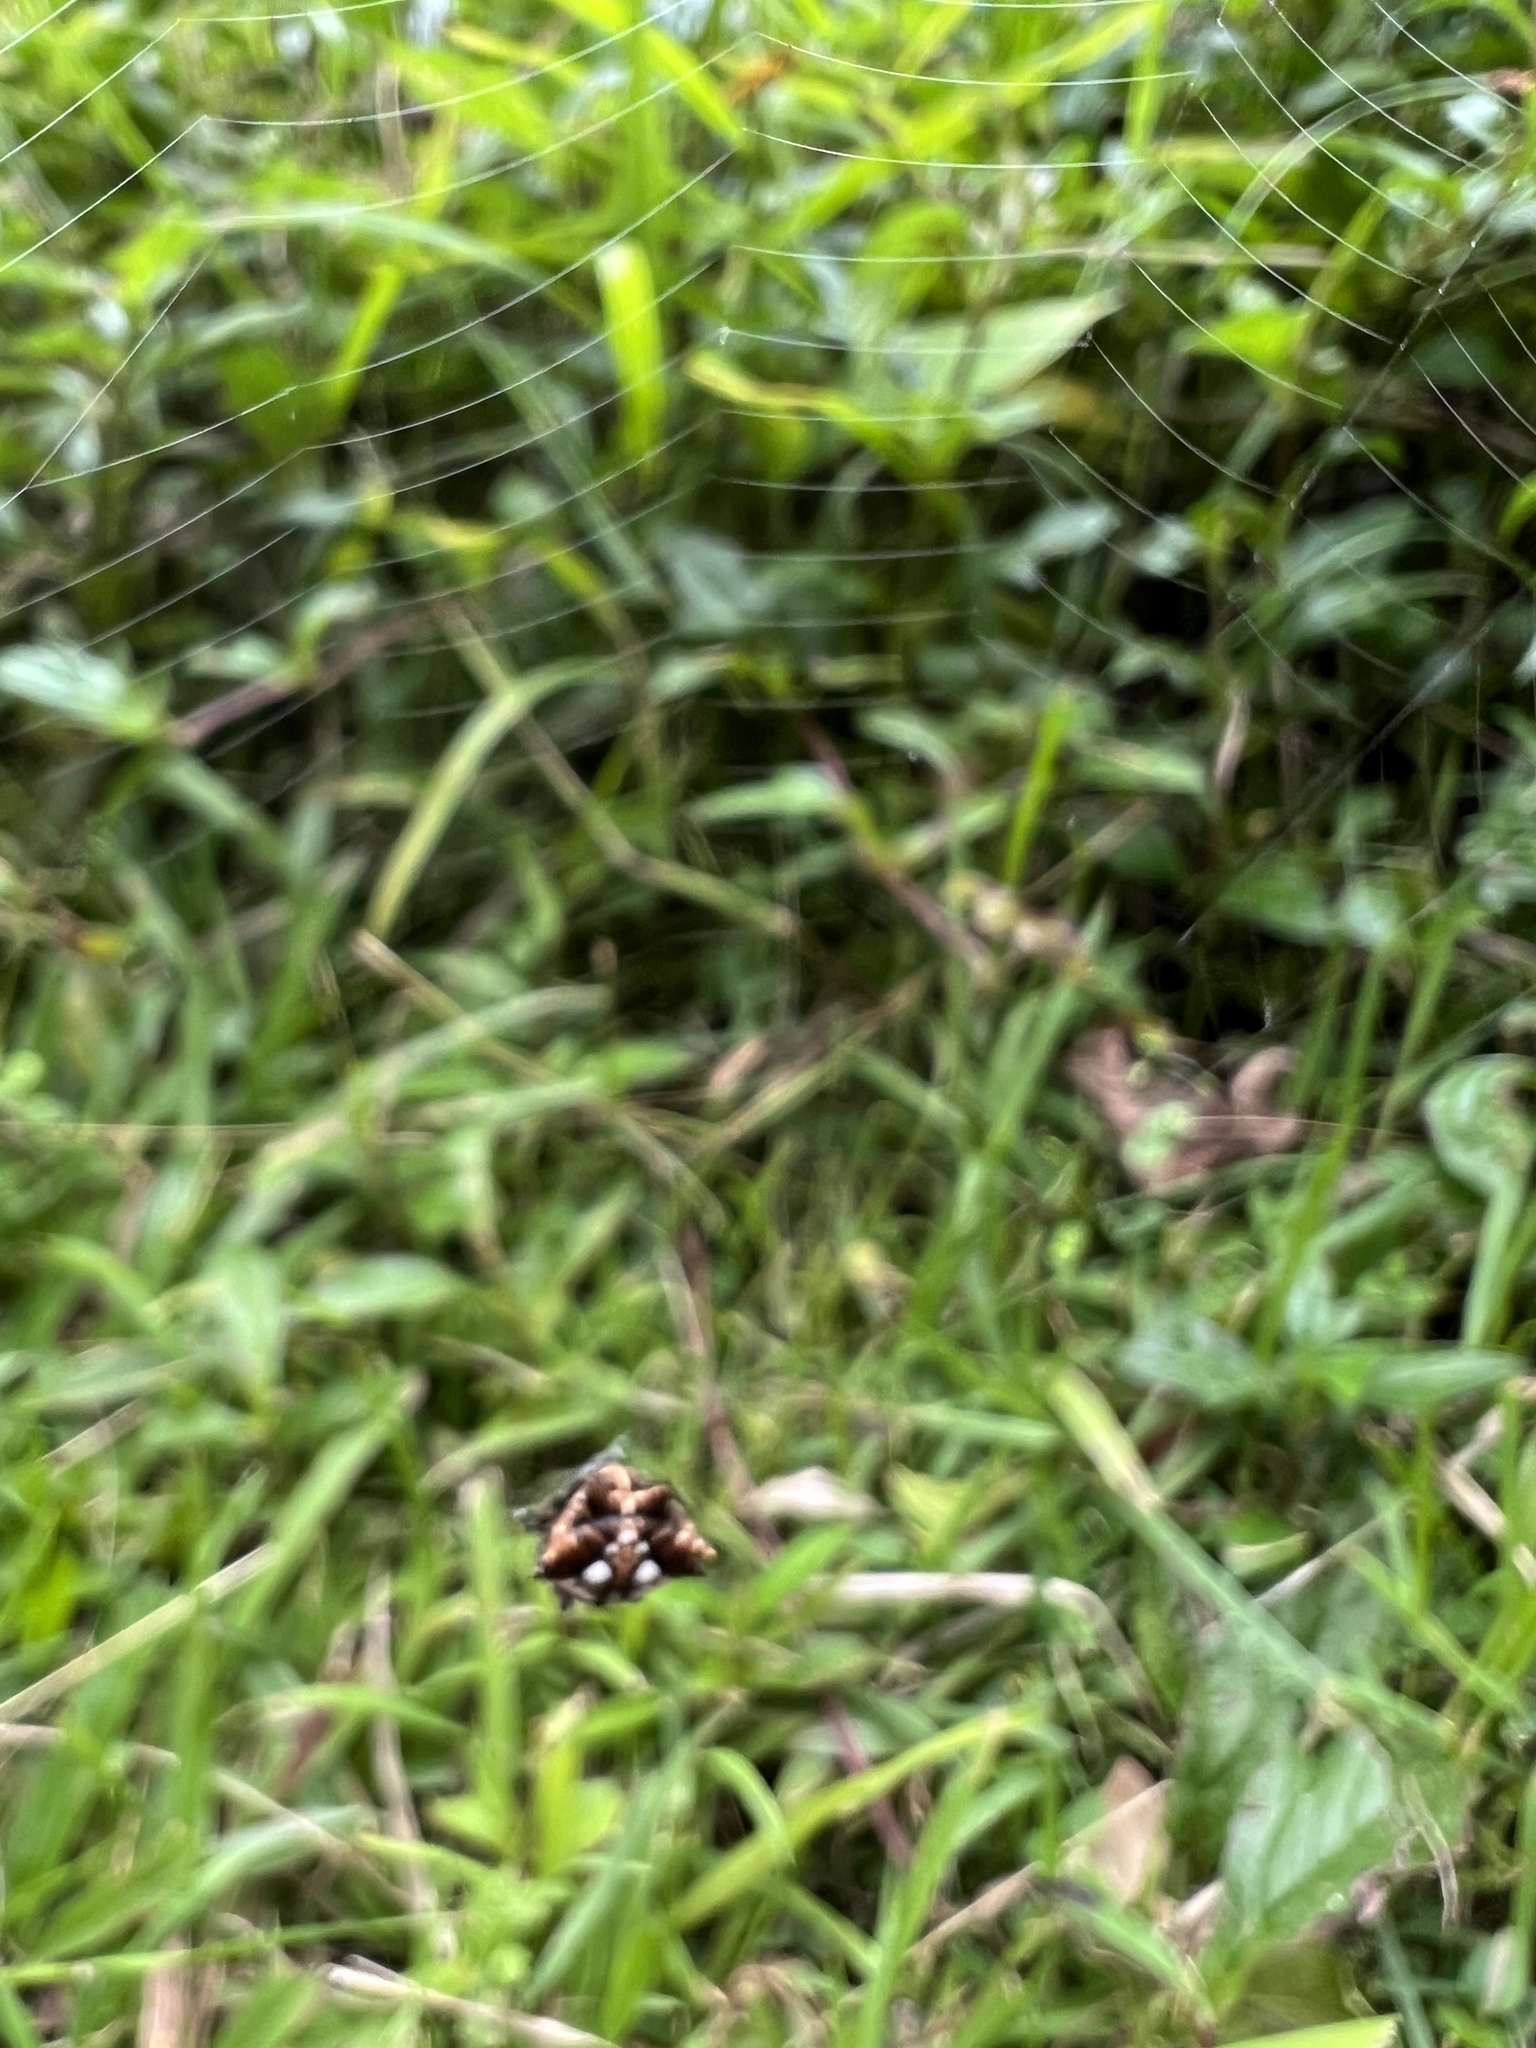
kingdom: Animalia
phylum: Arthropoda
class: Arachnida
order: Araneae
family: Araneidae
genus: Thelacantha
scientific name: Thelacantha brevispina
